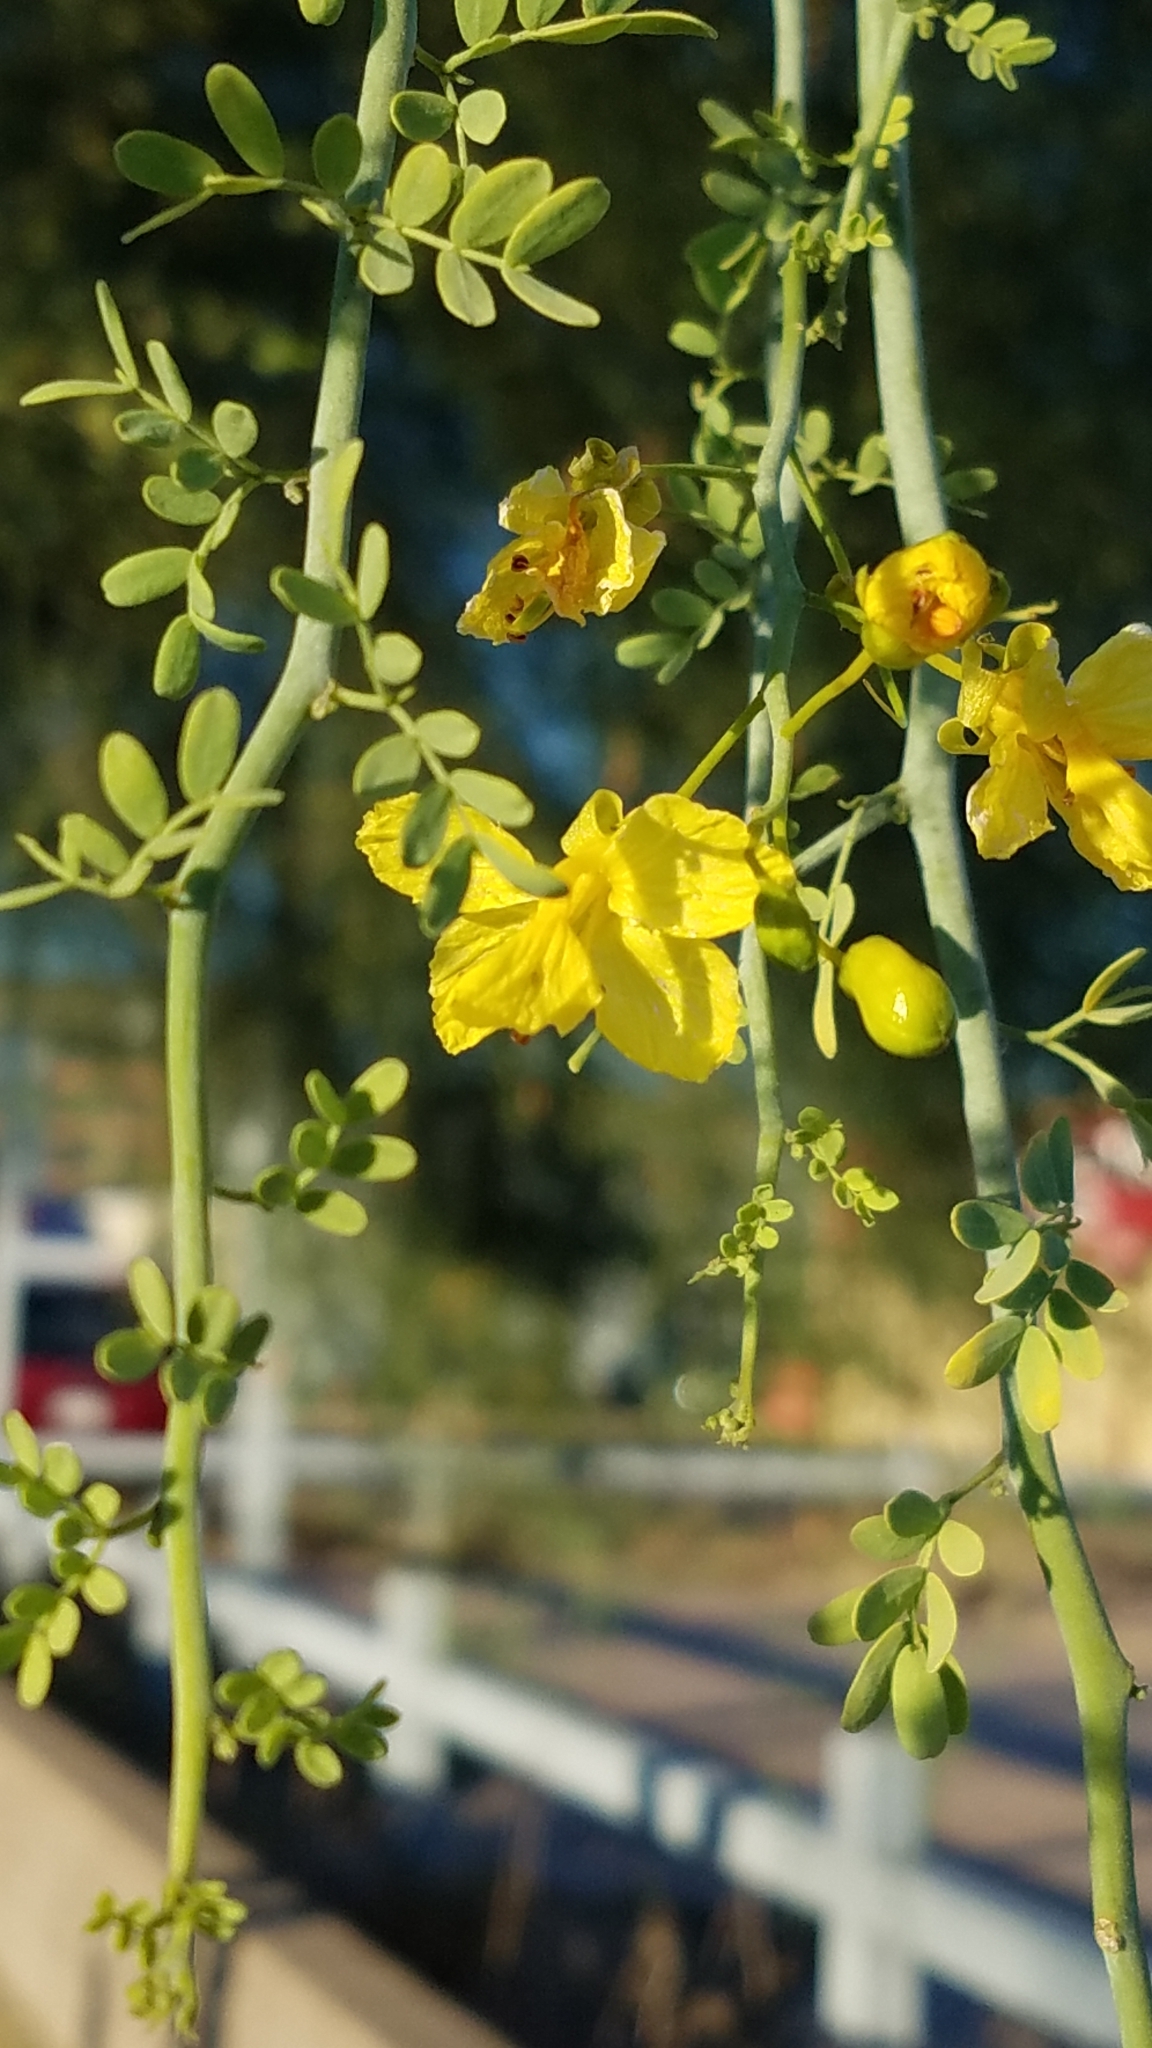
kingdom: Plantae
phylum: Tracheophyta
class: Magnoliopsida
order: Fabales
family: Fabaceae
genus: Parkinsonia
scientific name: Parkinsonia florida
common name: Blue paloverde
